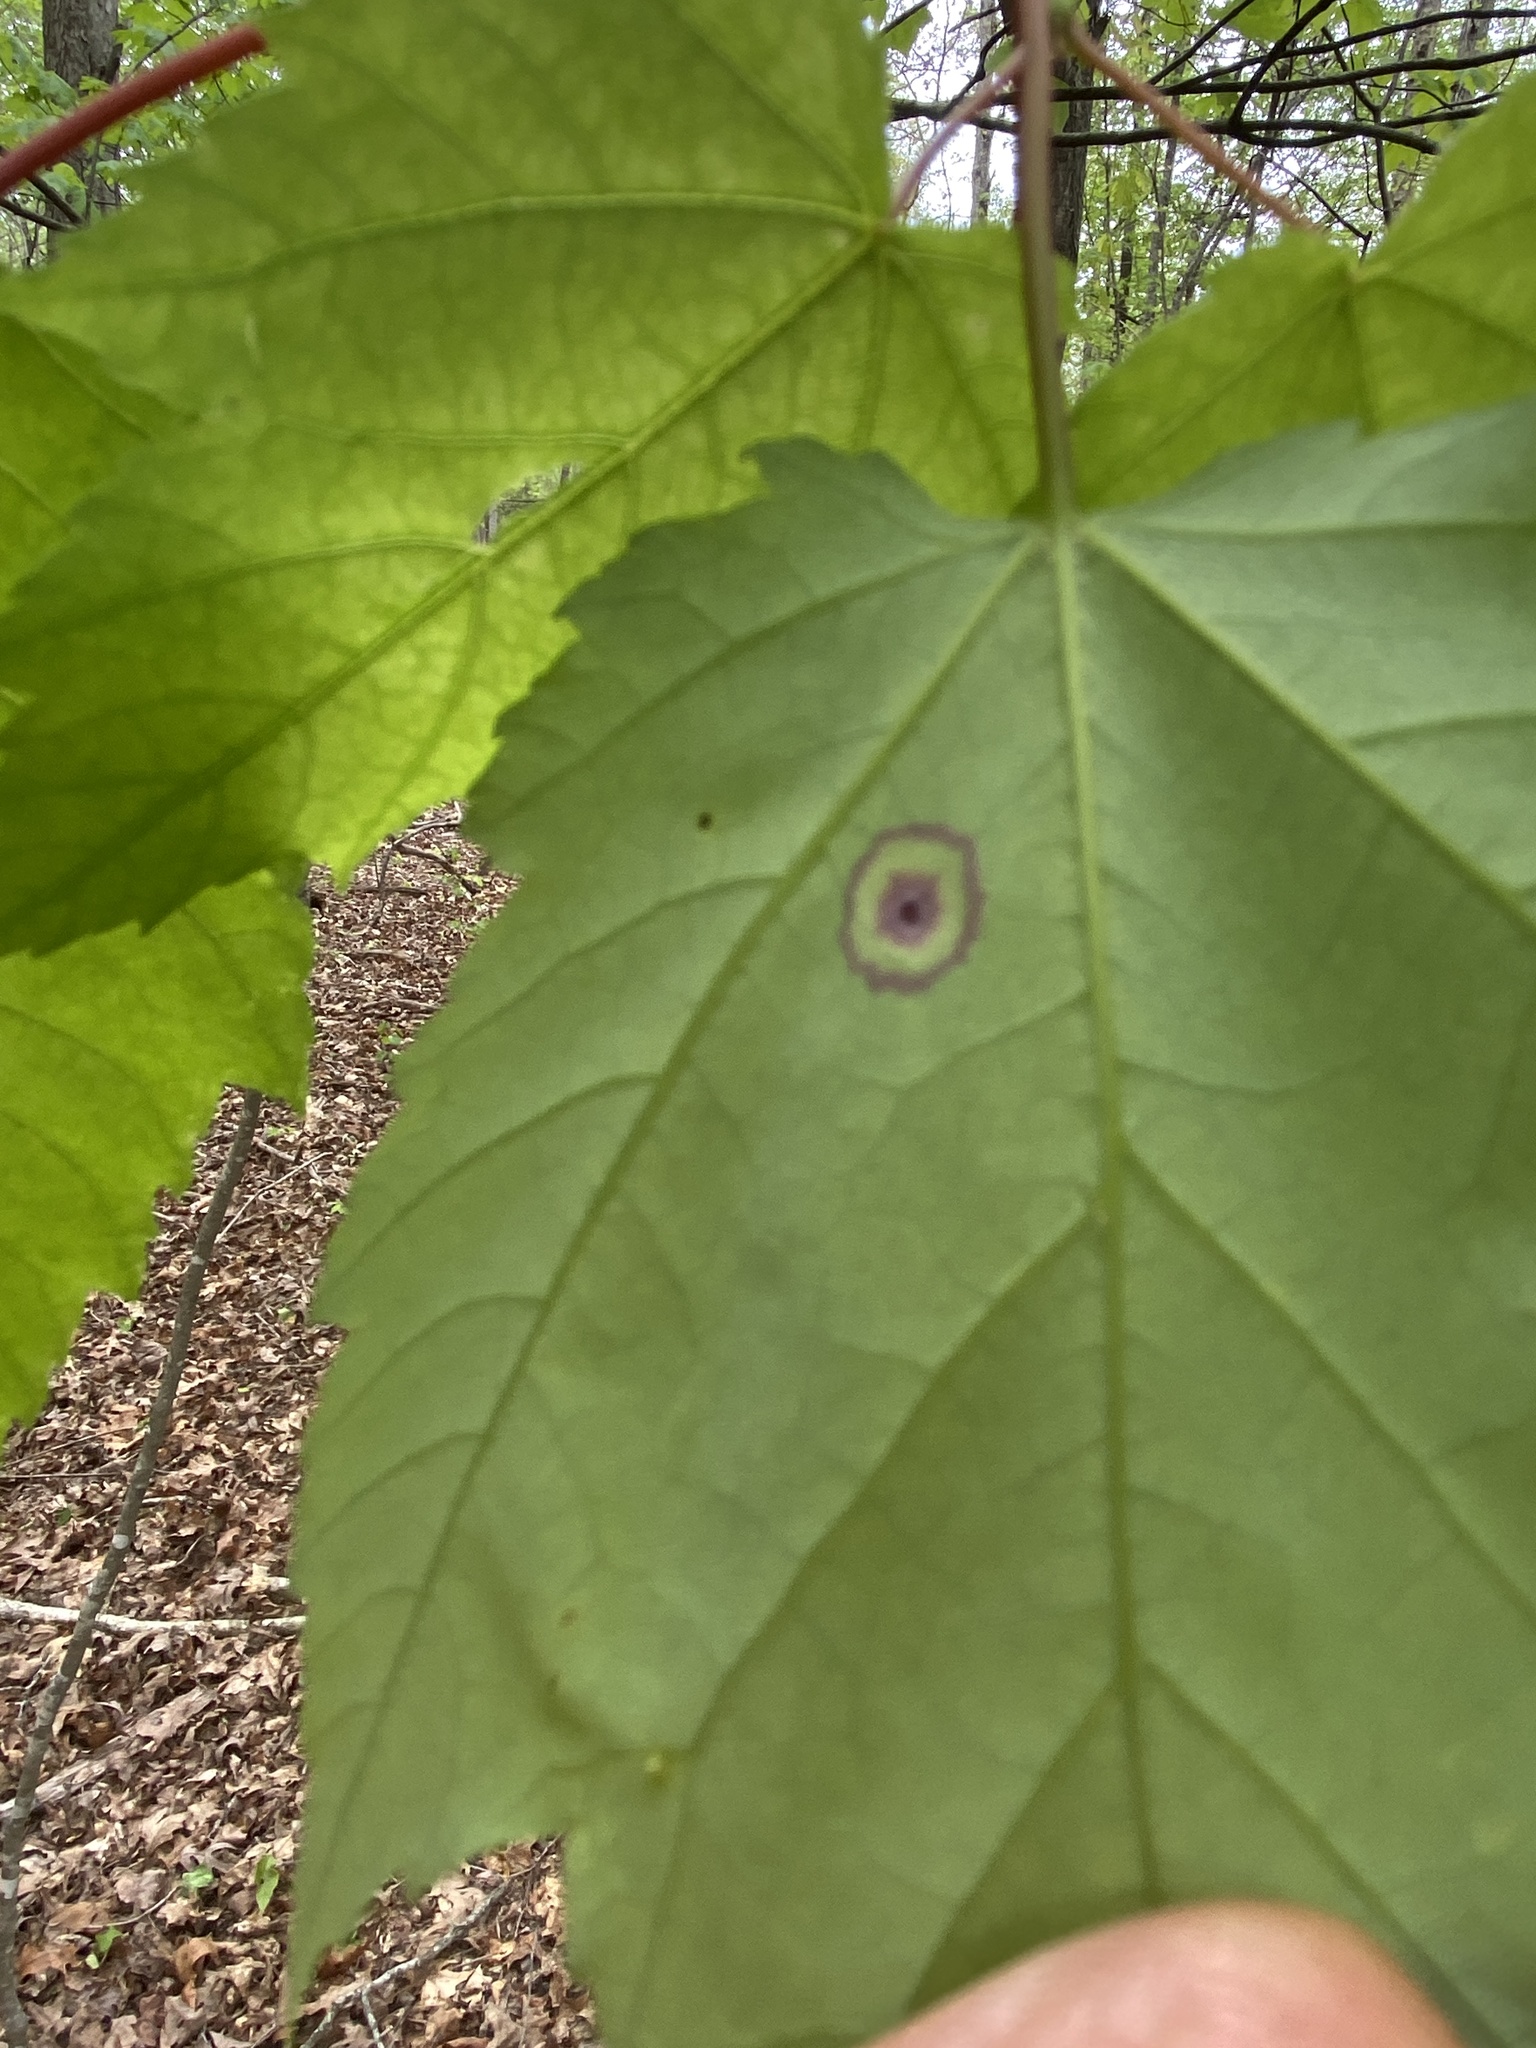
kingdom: Animalia
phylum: Arthropoda
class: Insecta
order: Diptera
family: Cecidomyiidae
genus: Acericecis
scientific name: Acericecis ocellaris
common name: Ocellate gall midge
